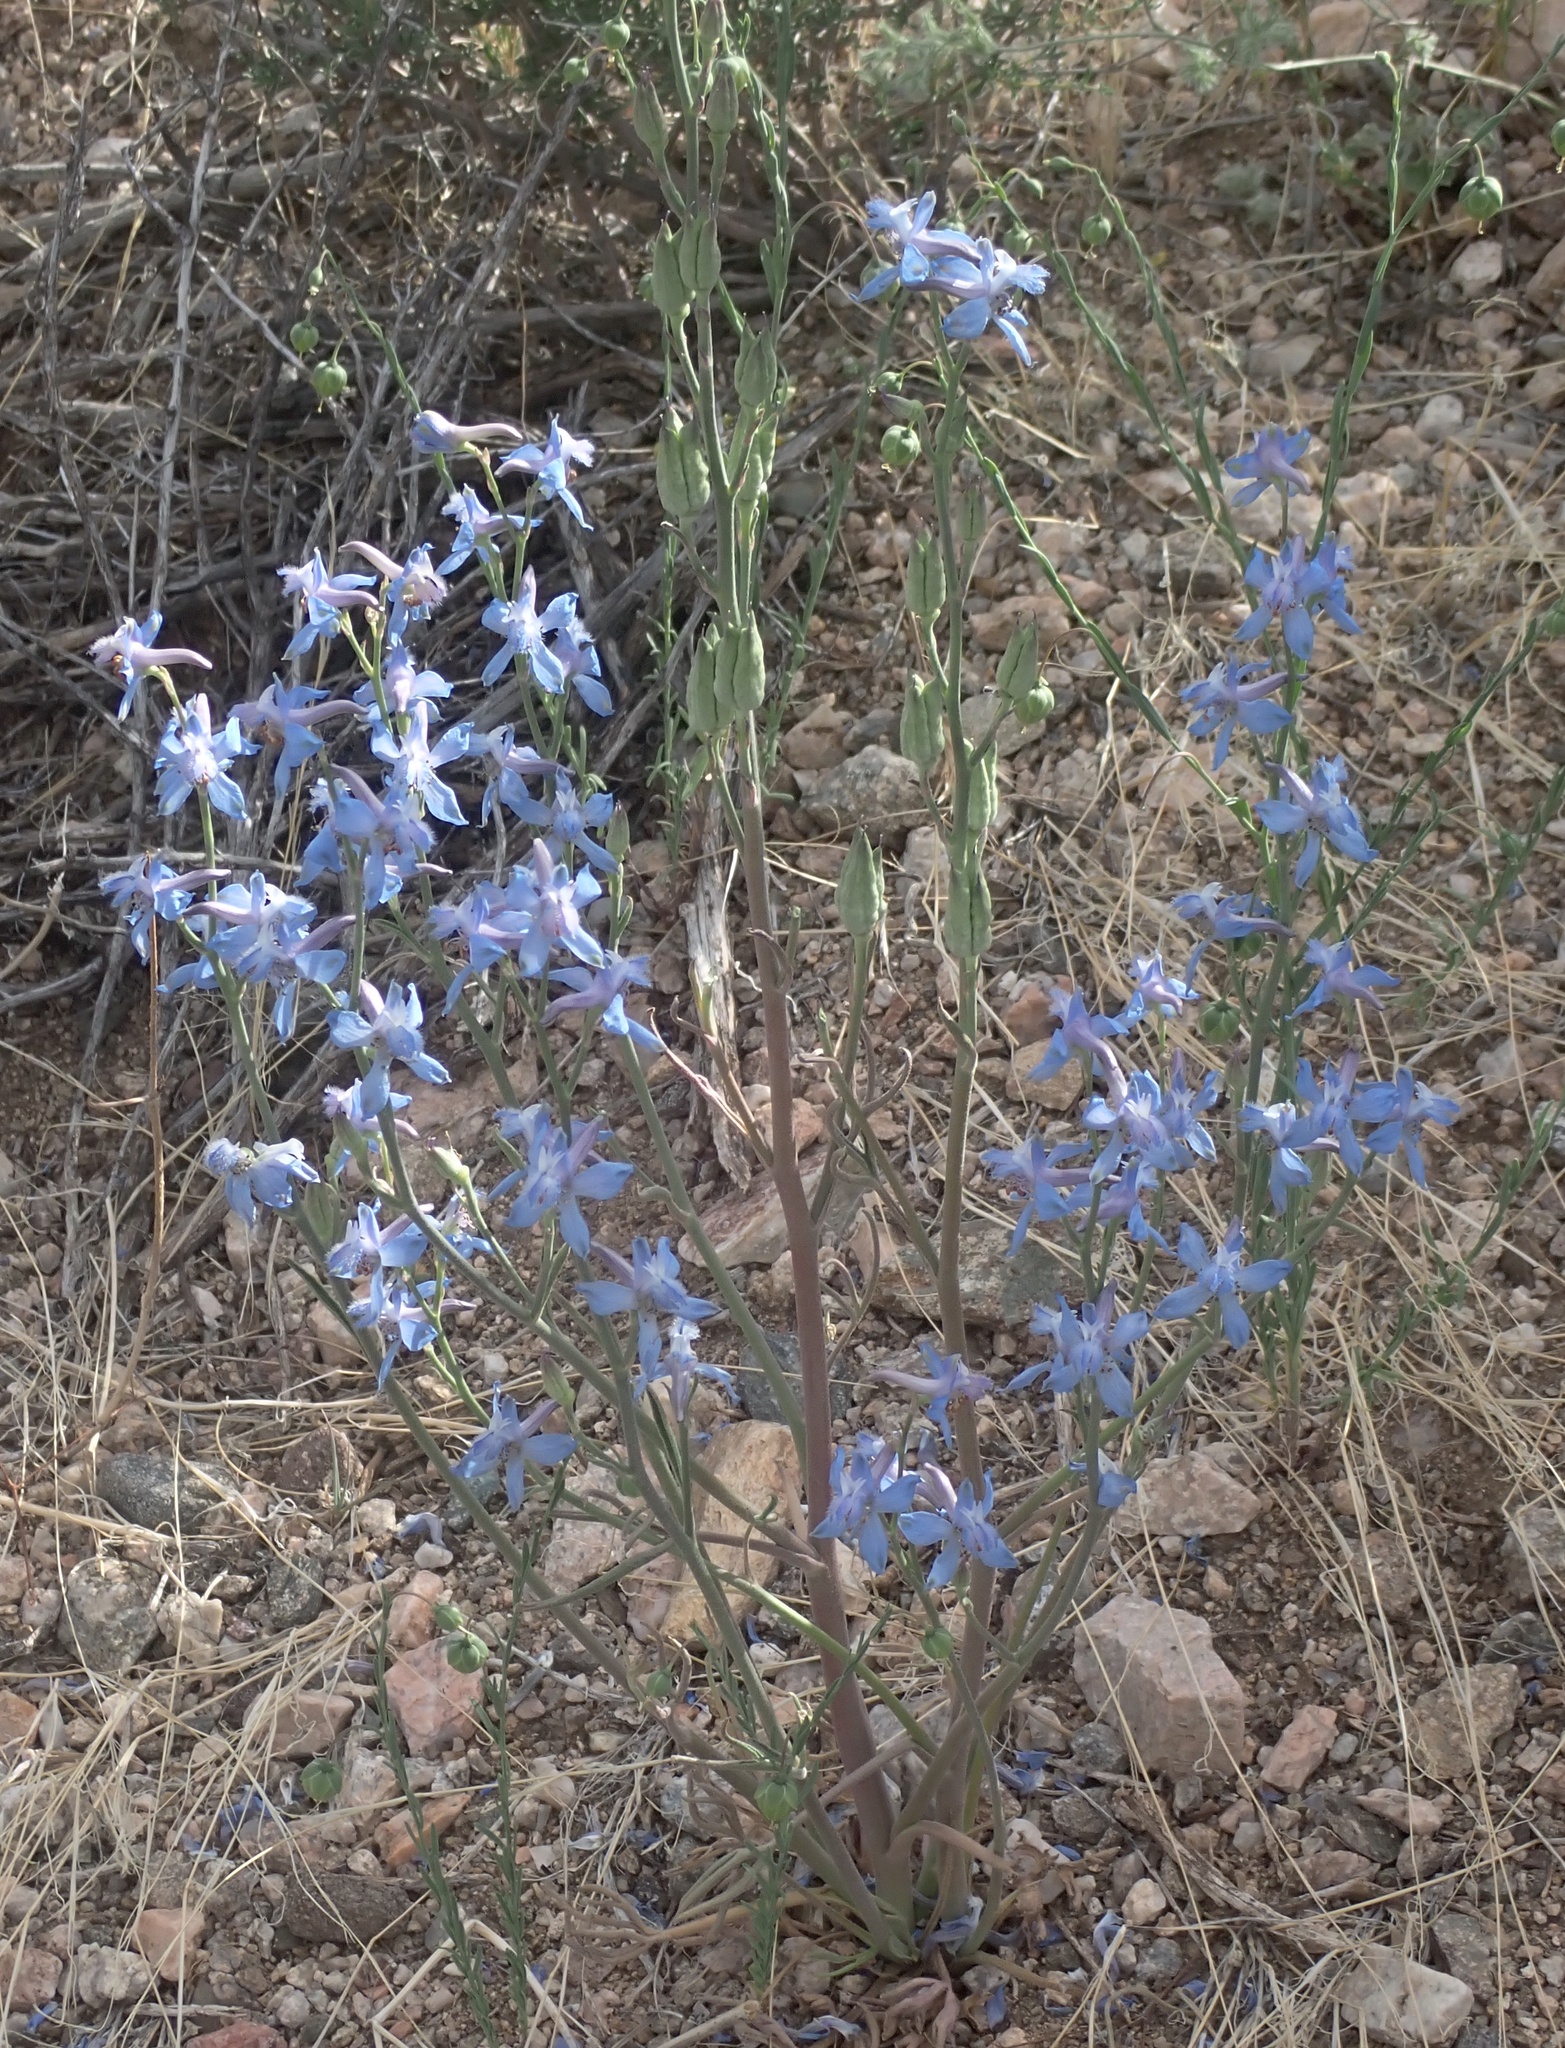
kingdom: Plantae
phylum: Tracheophyta
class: Magnoliopsida
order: Ranunculales
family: Ranunculaceae
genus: Delphinium
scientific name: Delphinium parishii
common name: Apache larkspur
